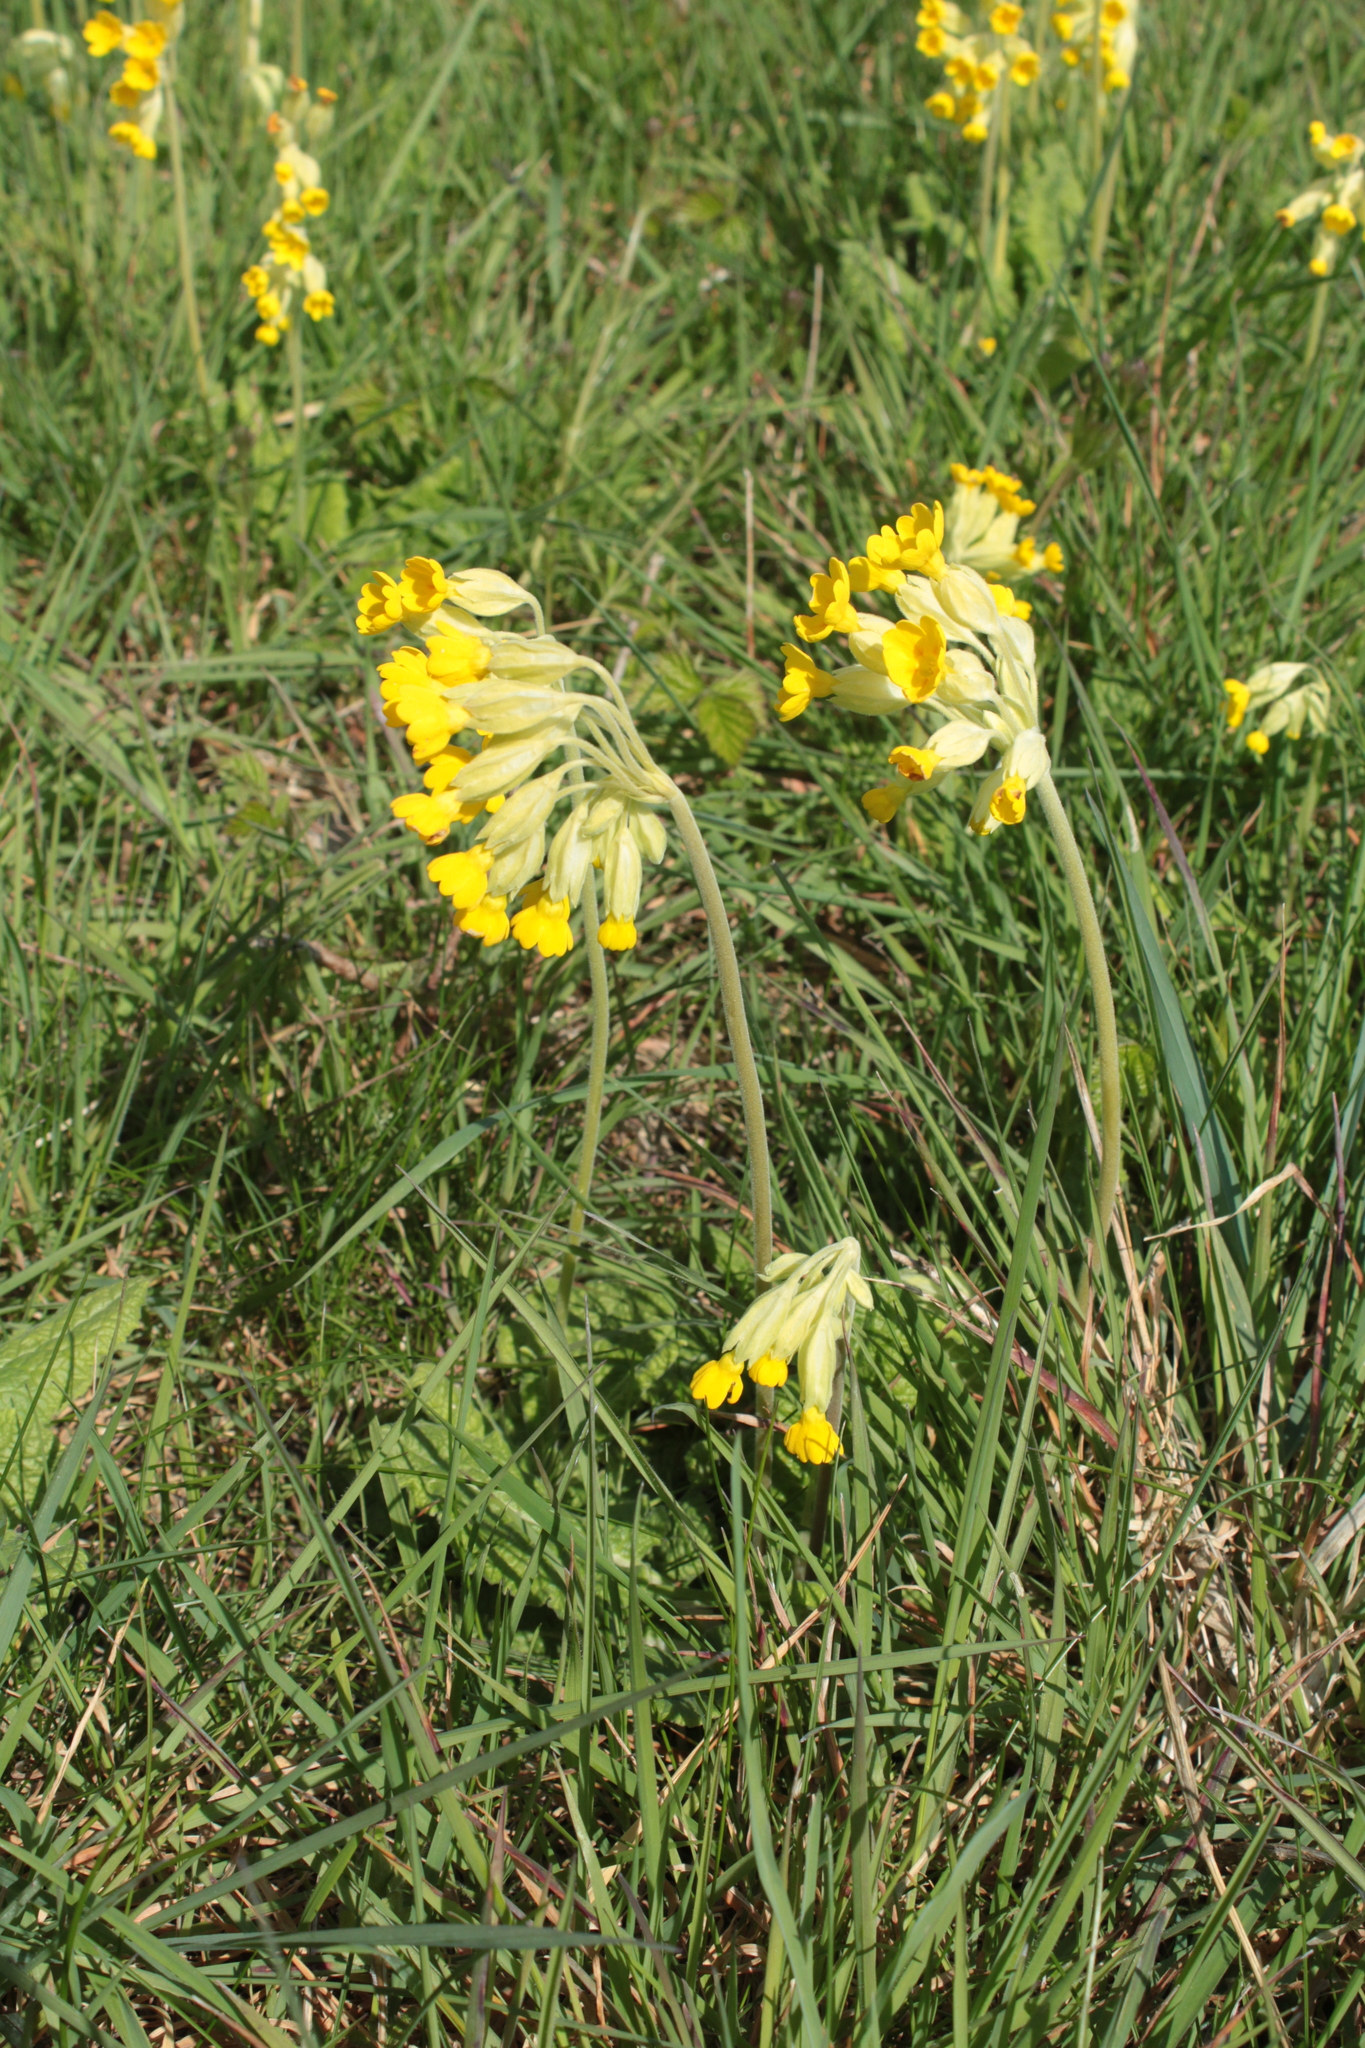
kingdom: Plantae
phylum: Tracheophyta
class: Magnoliopsida
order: Ericales
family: Primulaceae
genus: Primula
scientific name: Primula veris
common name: Cowslip
